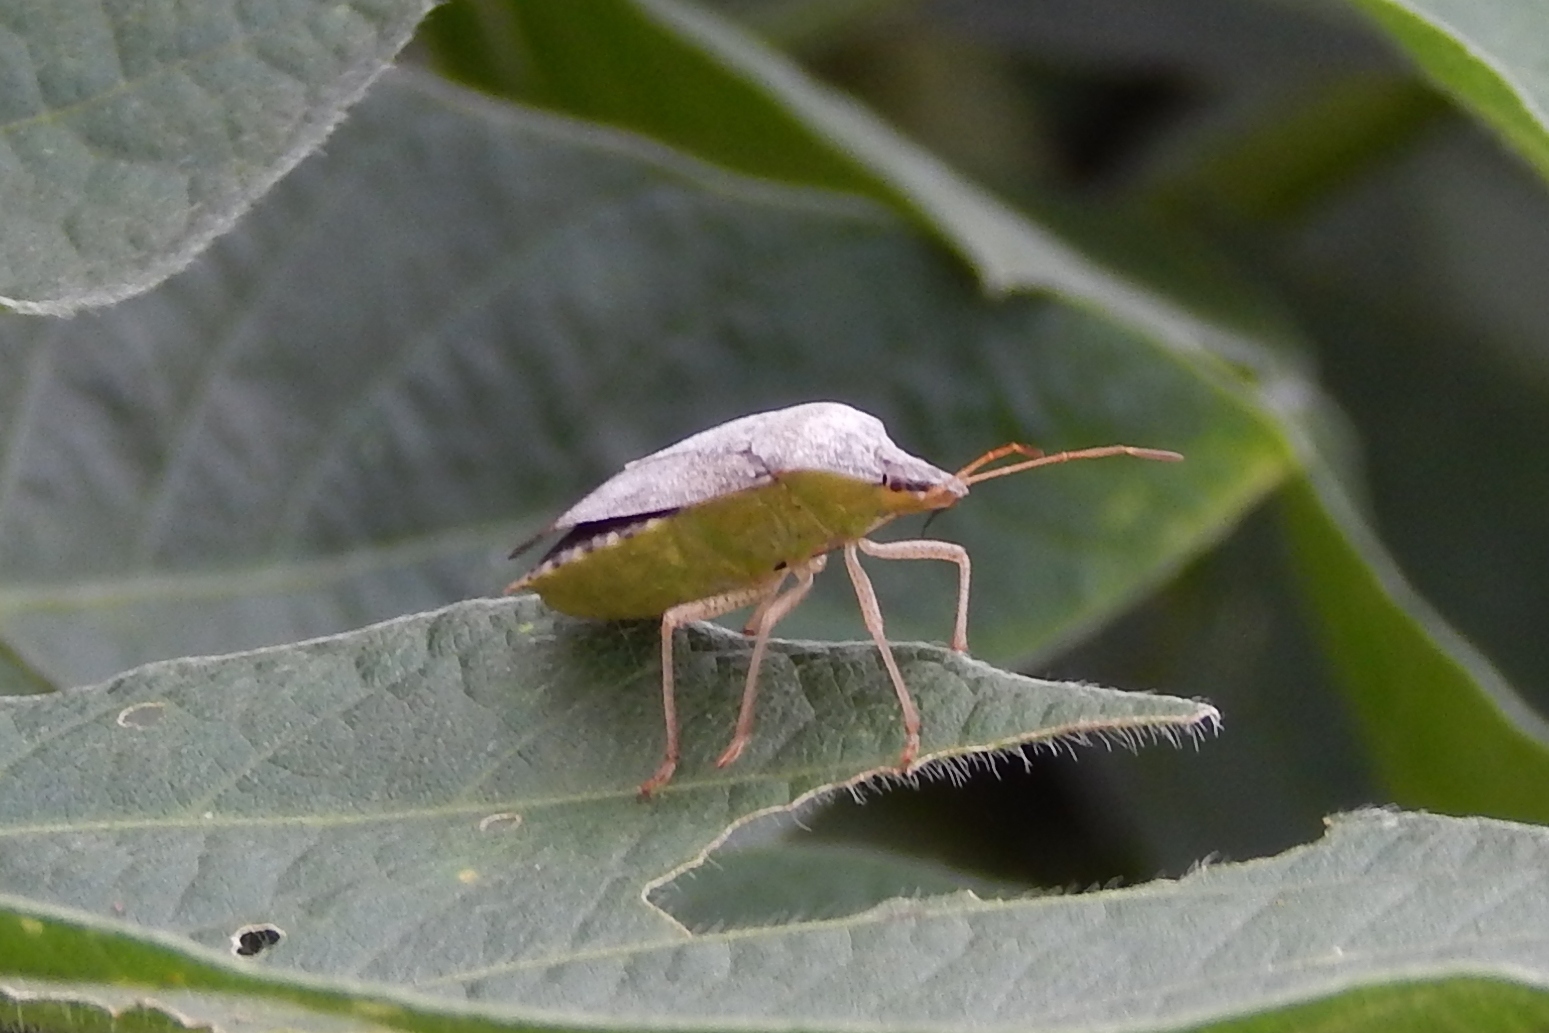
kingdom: Animalia
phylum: Arthropoda
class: Insecta
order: Hemiptera
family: Pentatomidae
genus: Euschistus
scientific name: Euschistus
